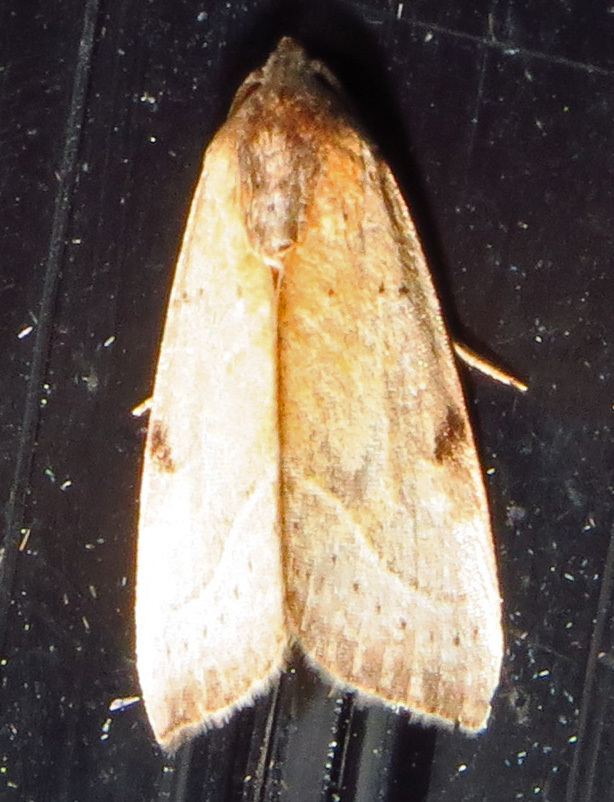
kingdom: Animalia
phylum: Arthropoda
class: Insecta
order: Lepidoptera
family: Noctuidae
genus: Galgula
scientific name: Galgula partita
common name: Wedgeling
